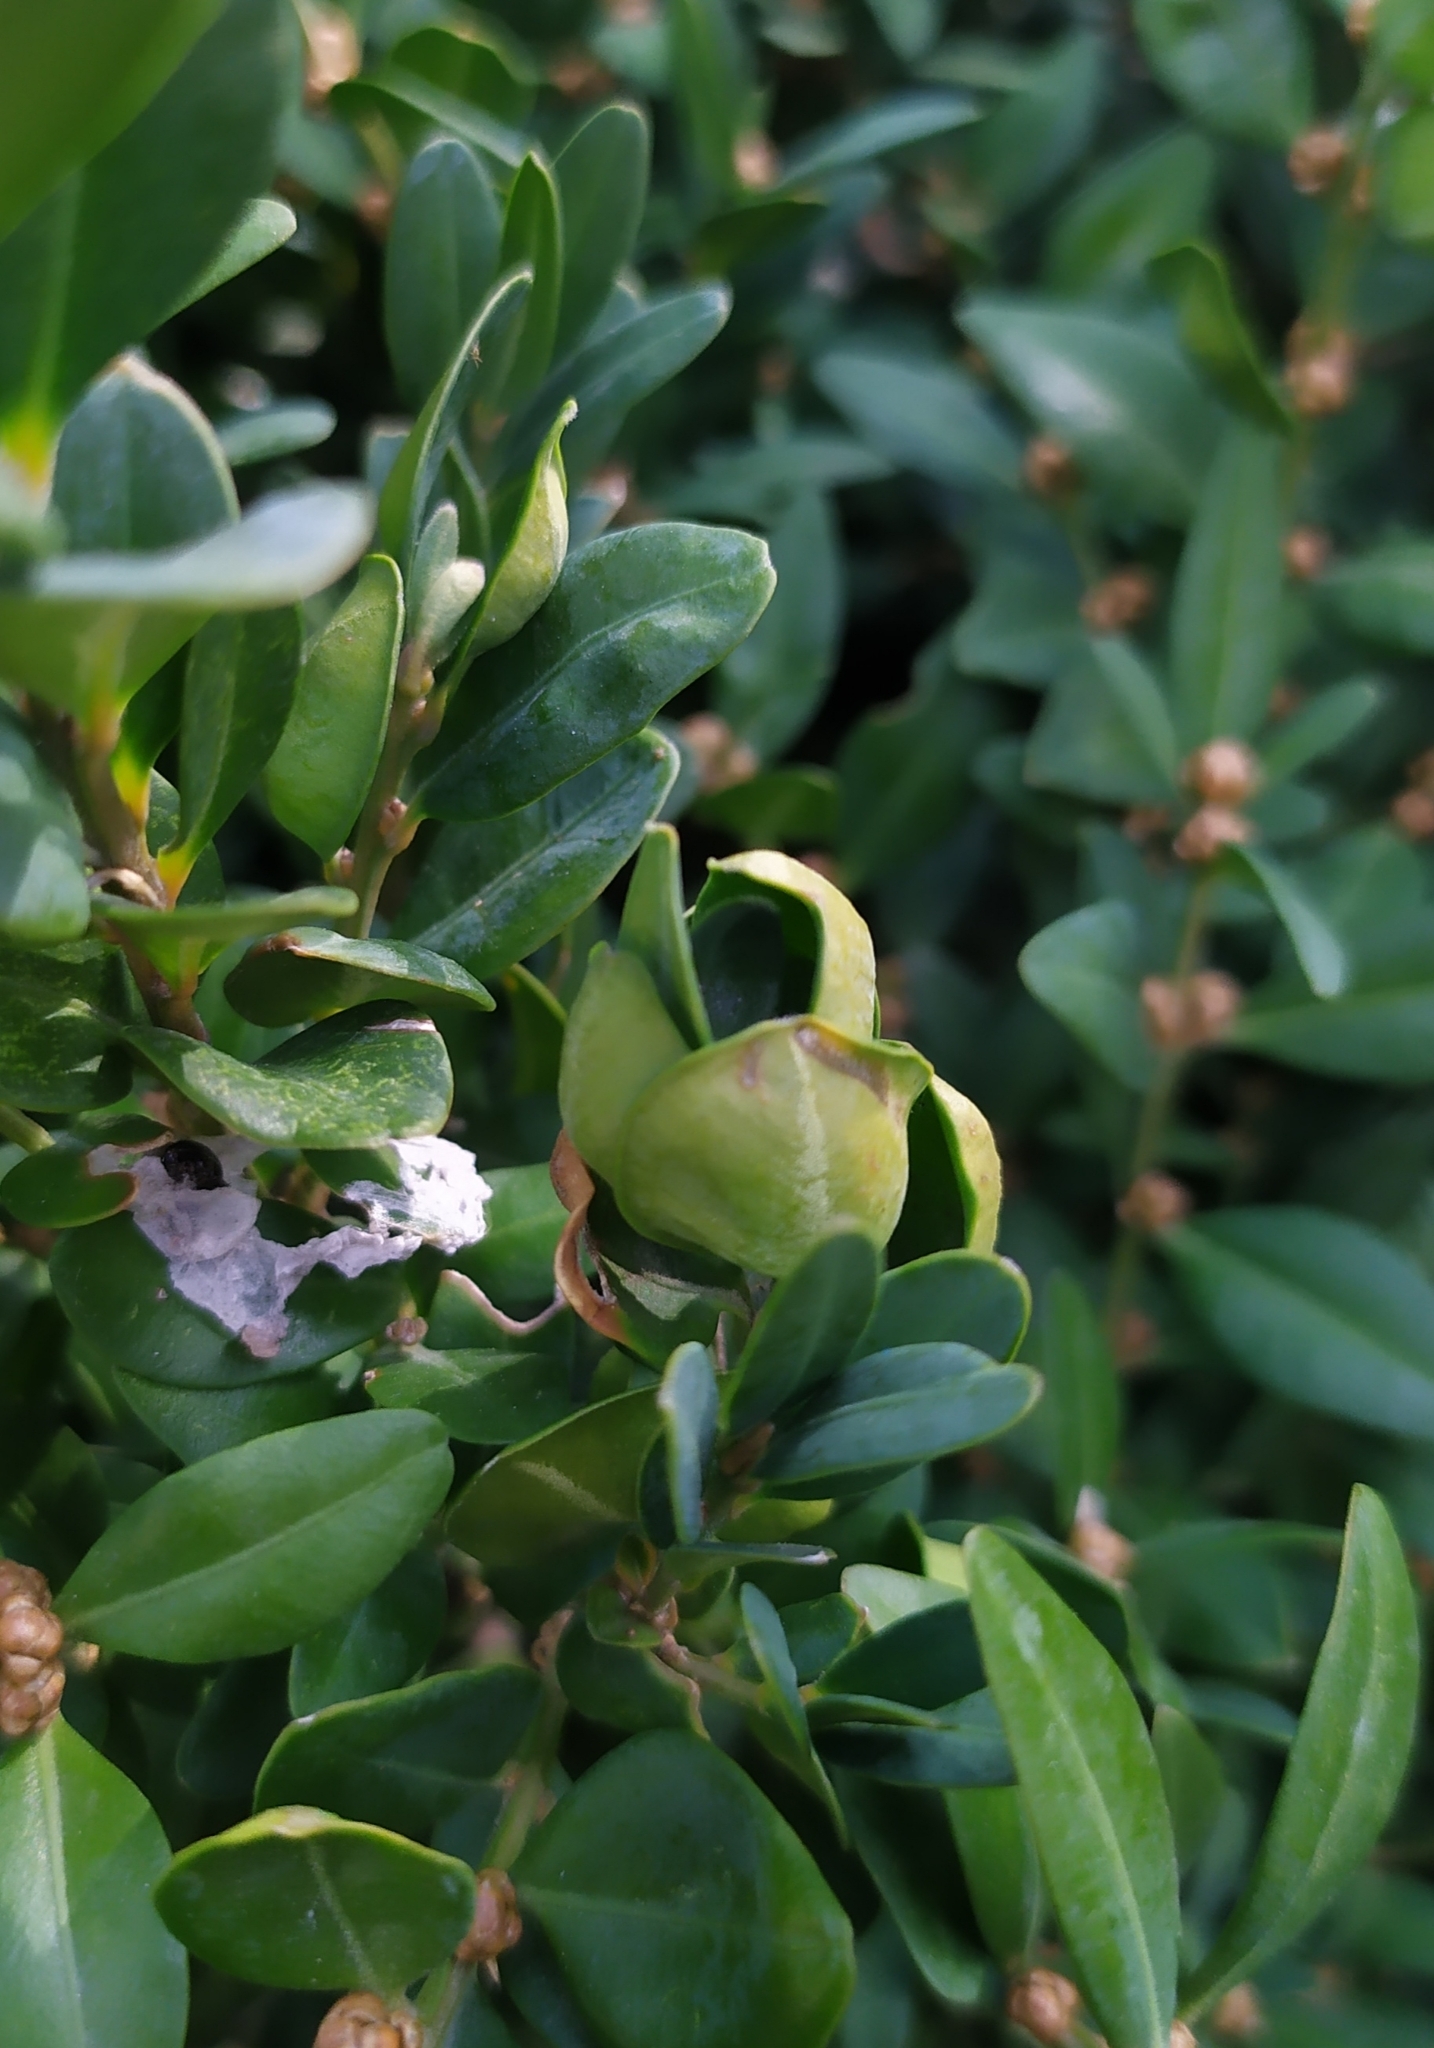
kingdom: Animalia
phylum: Arthropoda
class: Insecta
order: Hemiptera
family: Psyllidae
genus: Psylla
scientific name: Psylla buxi
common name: Boxwood psyllid
